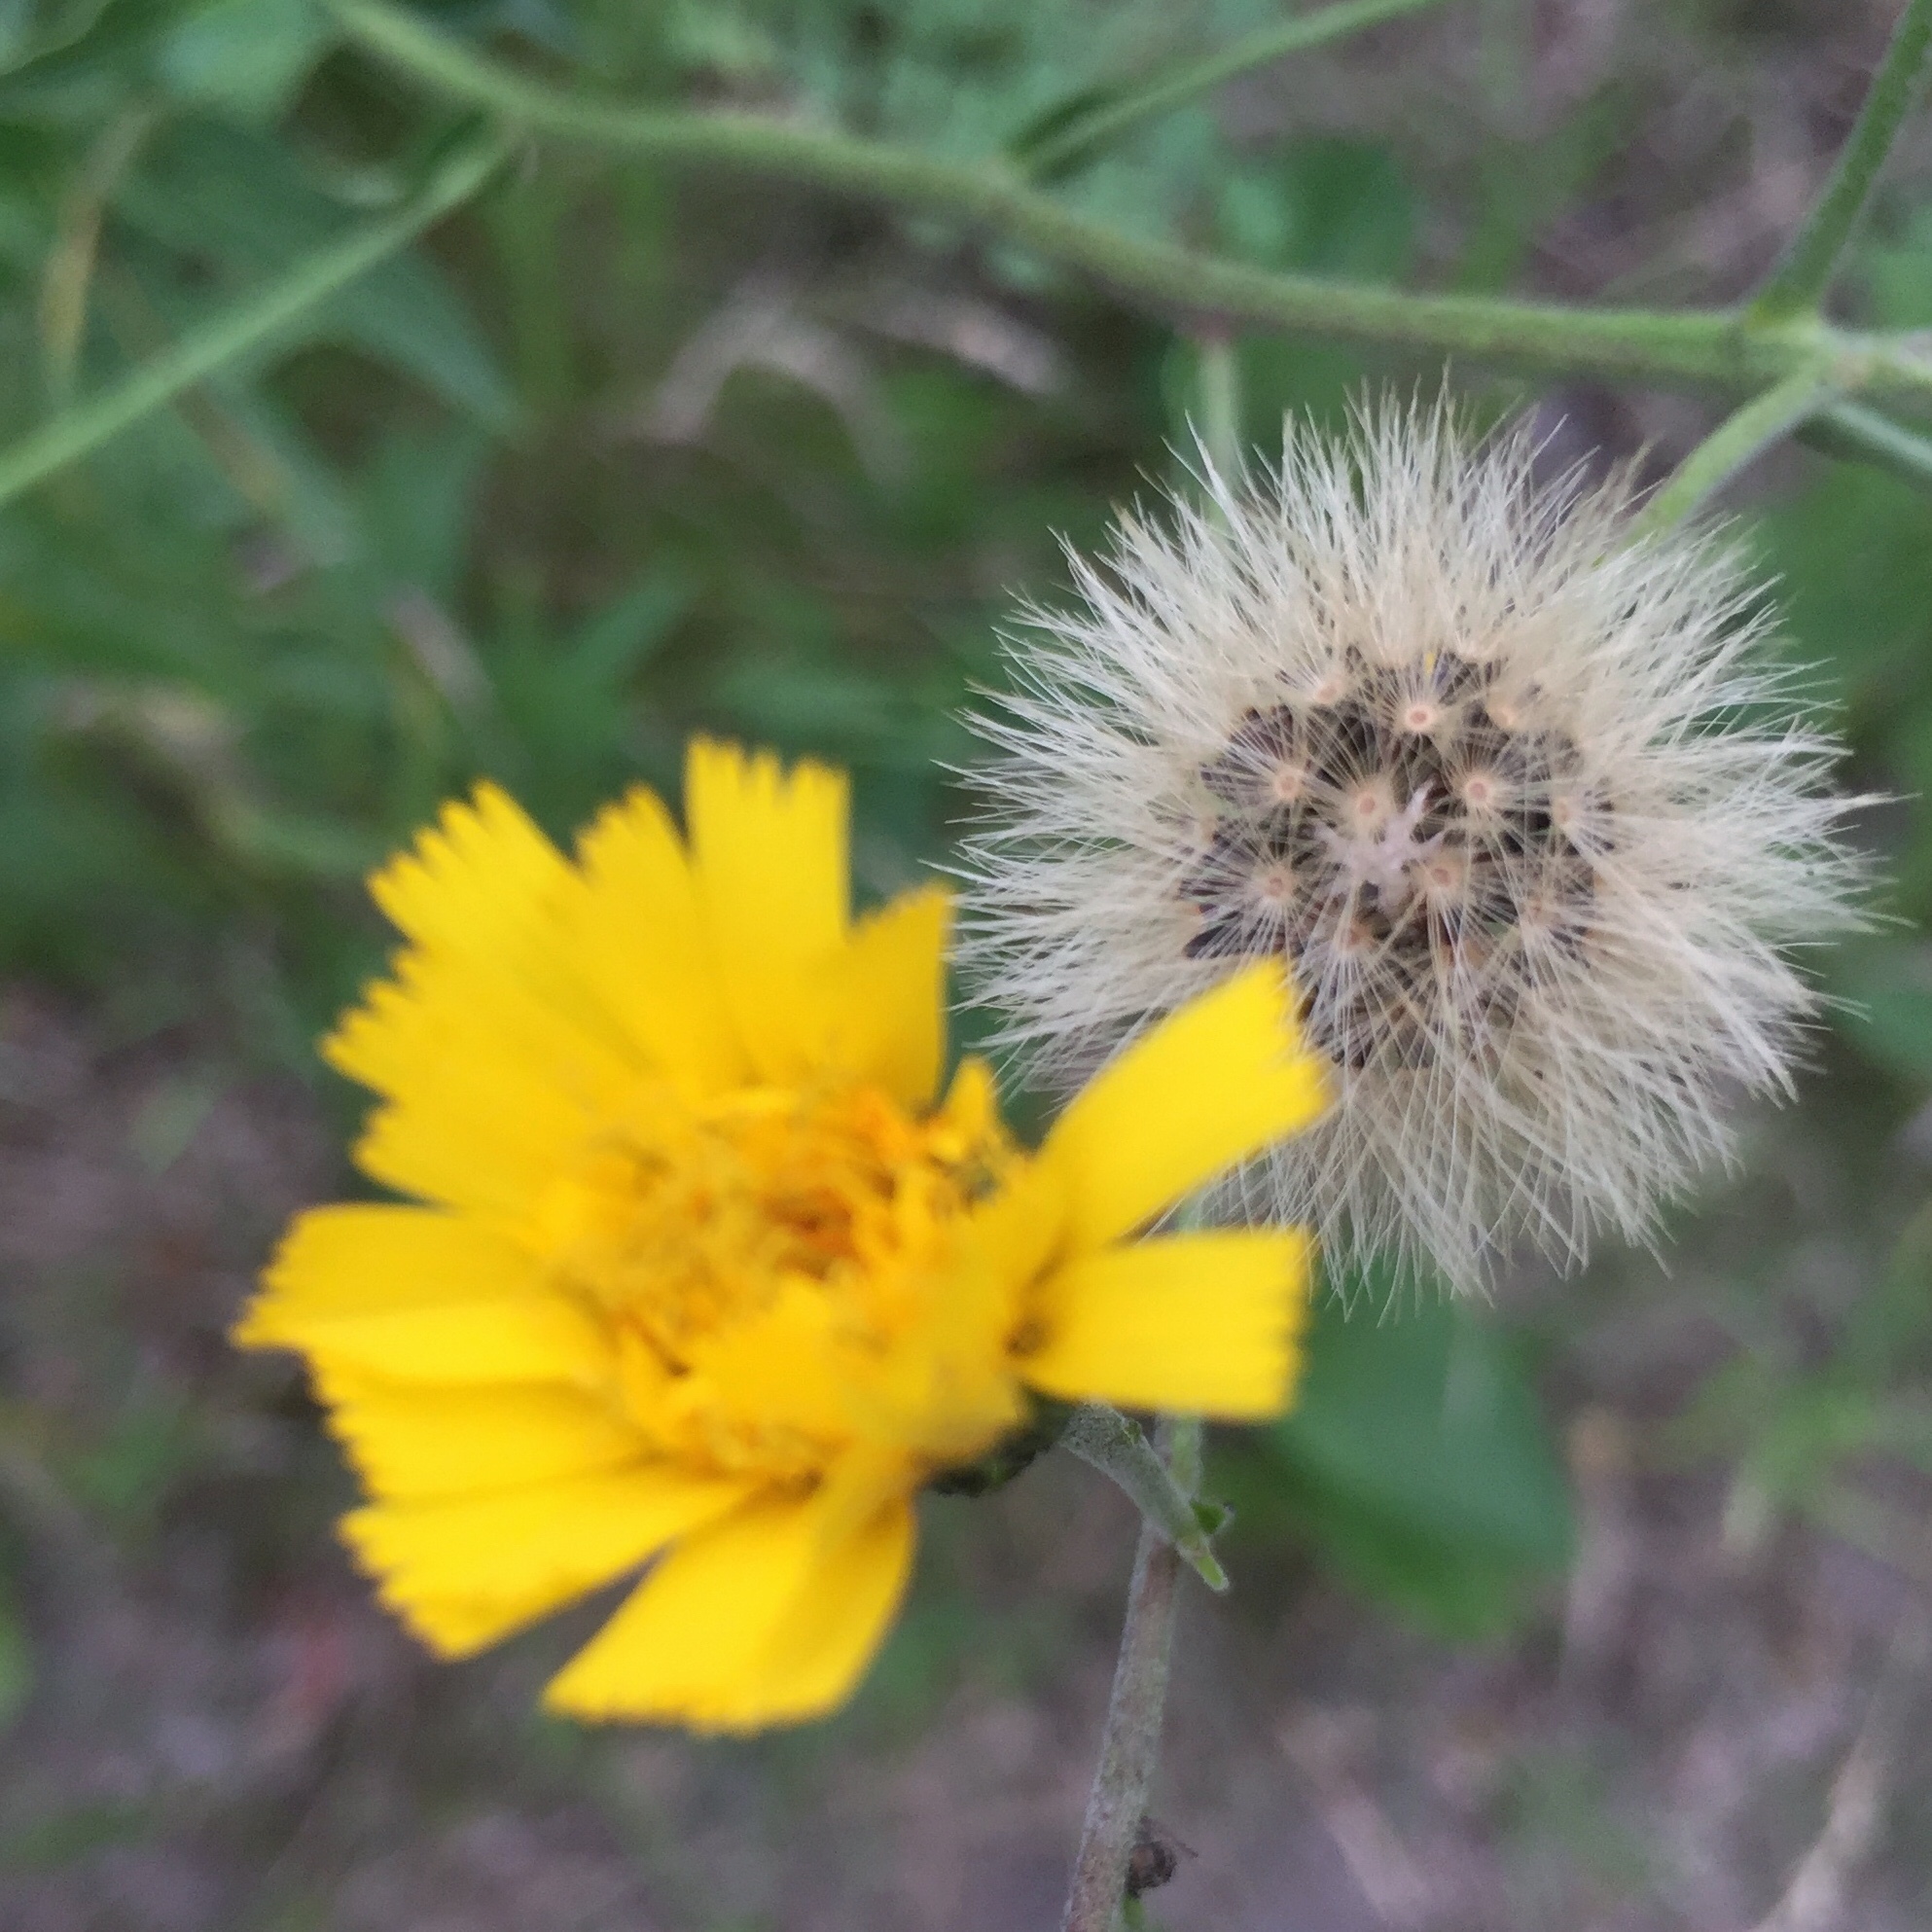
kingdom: Plantae
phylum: Tracheophyta
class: Magnoliopsida
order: Asterales
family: Asteraceae
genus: Hieracium
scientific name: Hieracium umbellatum
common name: Northern hawkweed
